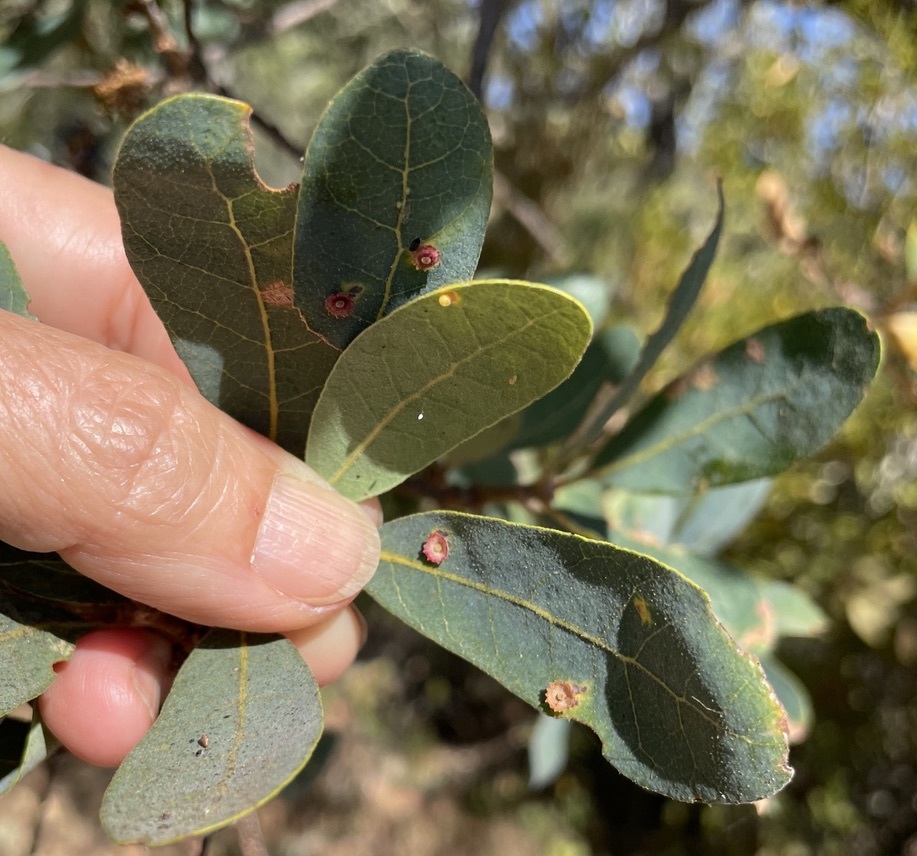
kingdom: Animalia
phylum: Arthropoda
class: Insecta
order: Hymenoptera
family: Cynipidae
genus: Andricus
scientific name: Andricus
